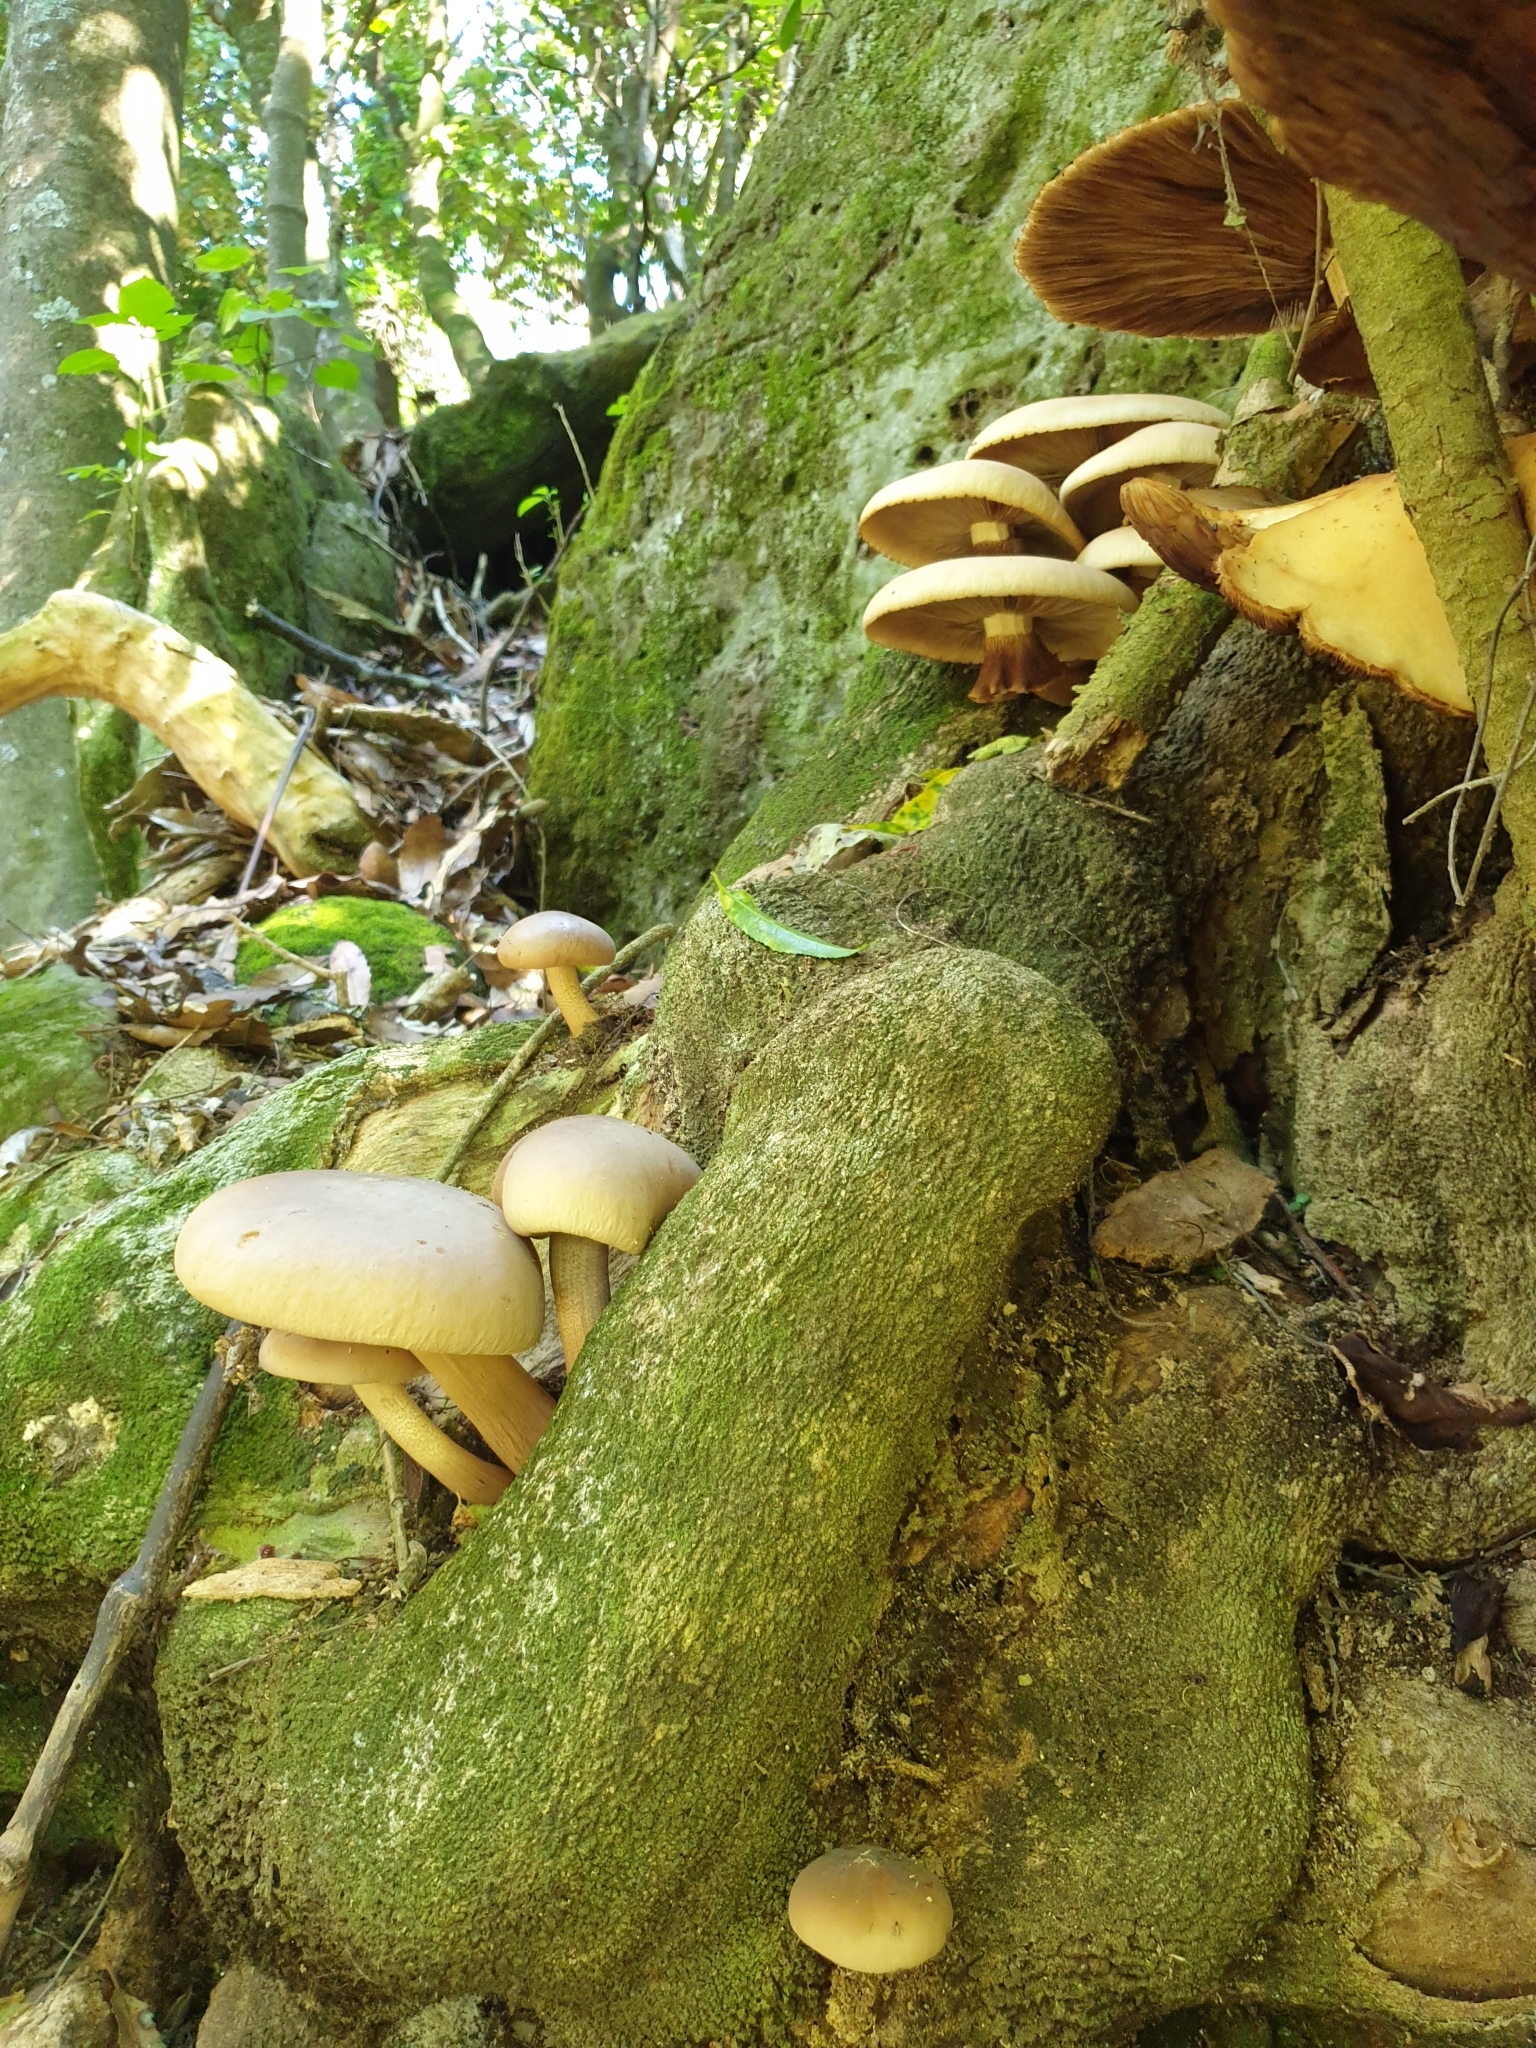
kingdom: Fungi
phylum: Basidiomycota
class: Agaricomycetes
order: Agaricales
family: Tubariaceae
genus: Cyclocybe
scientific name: Cyclocybe parasitica
